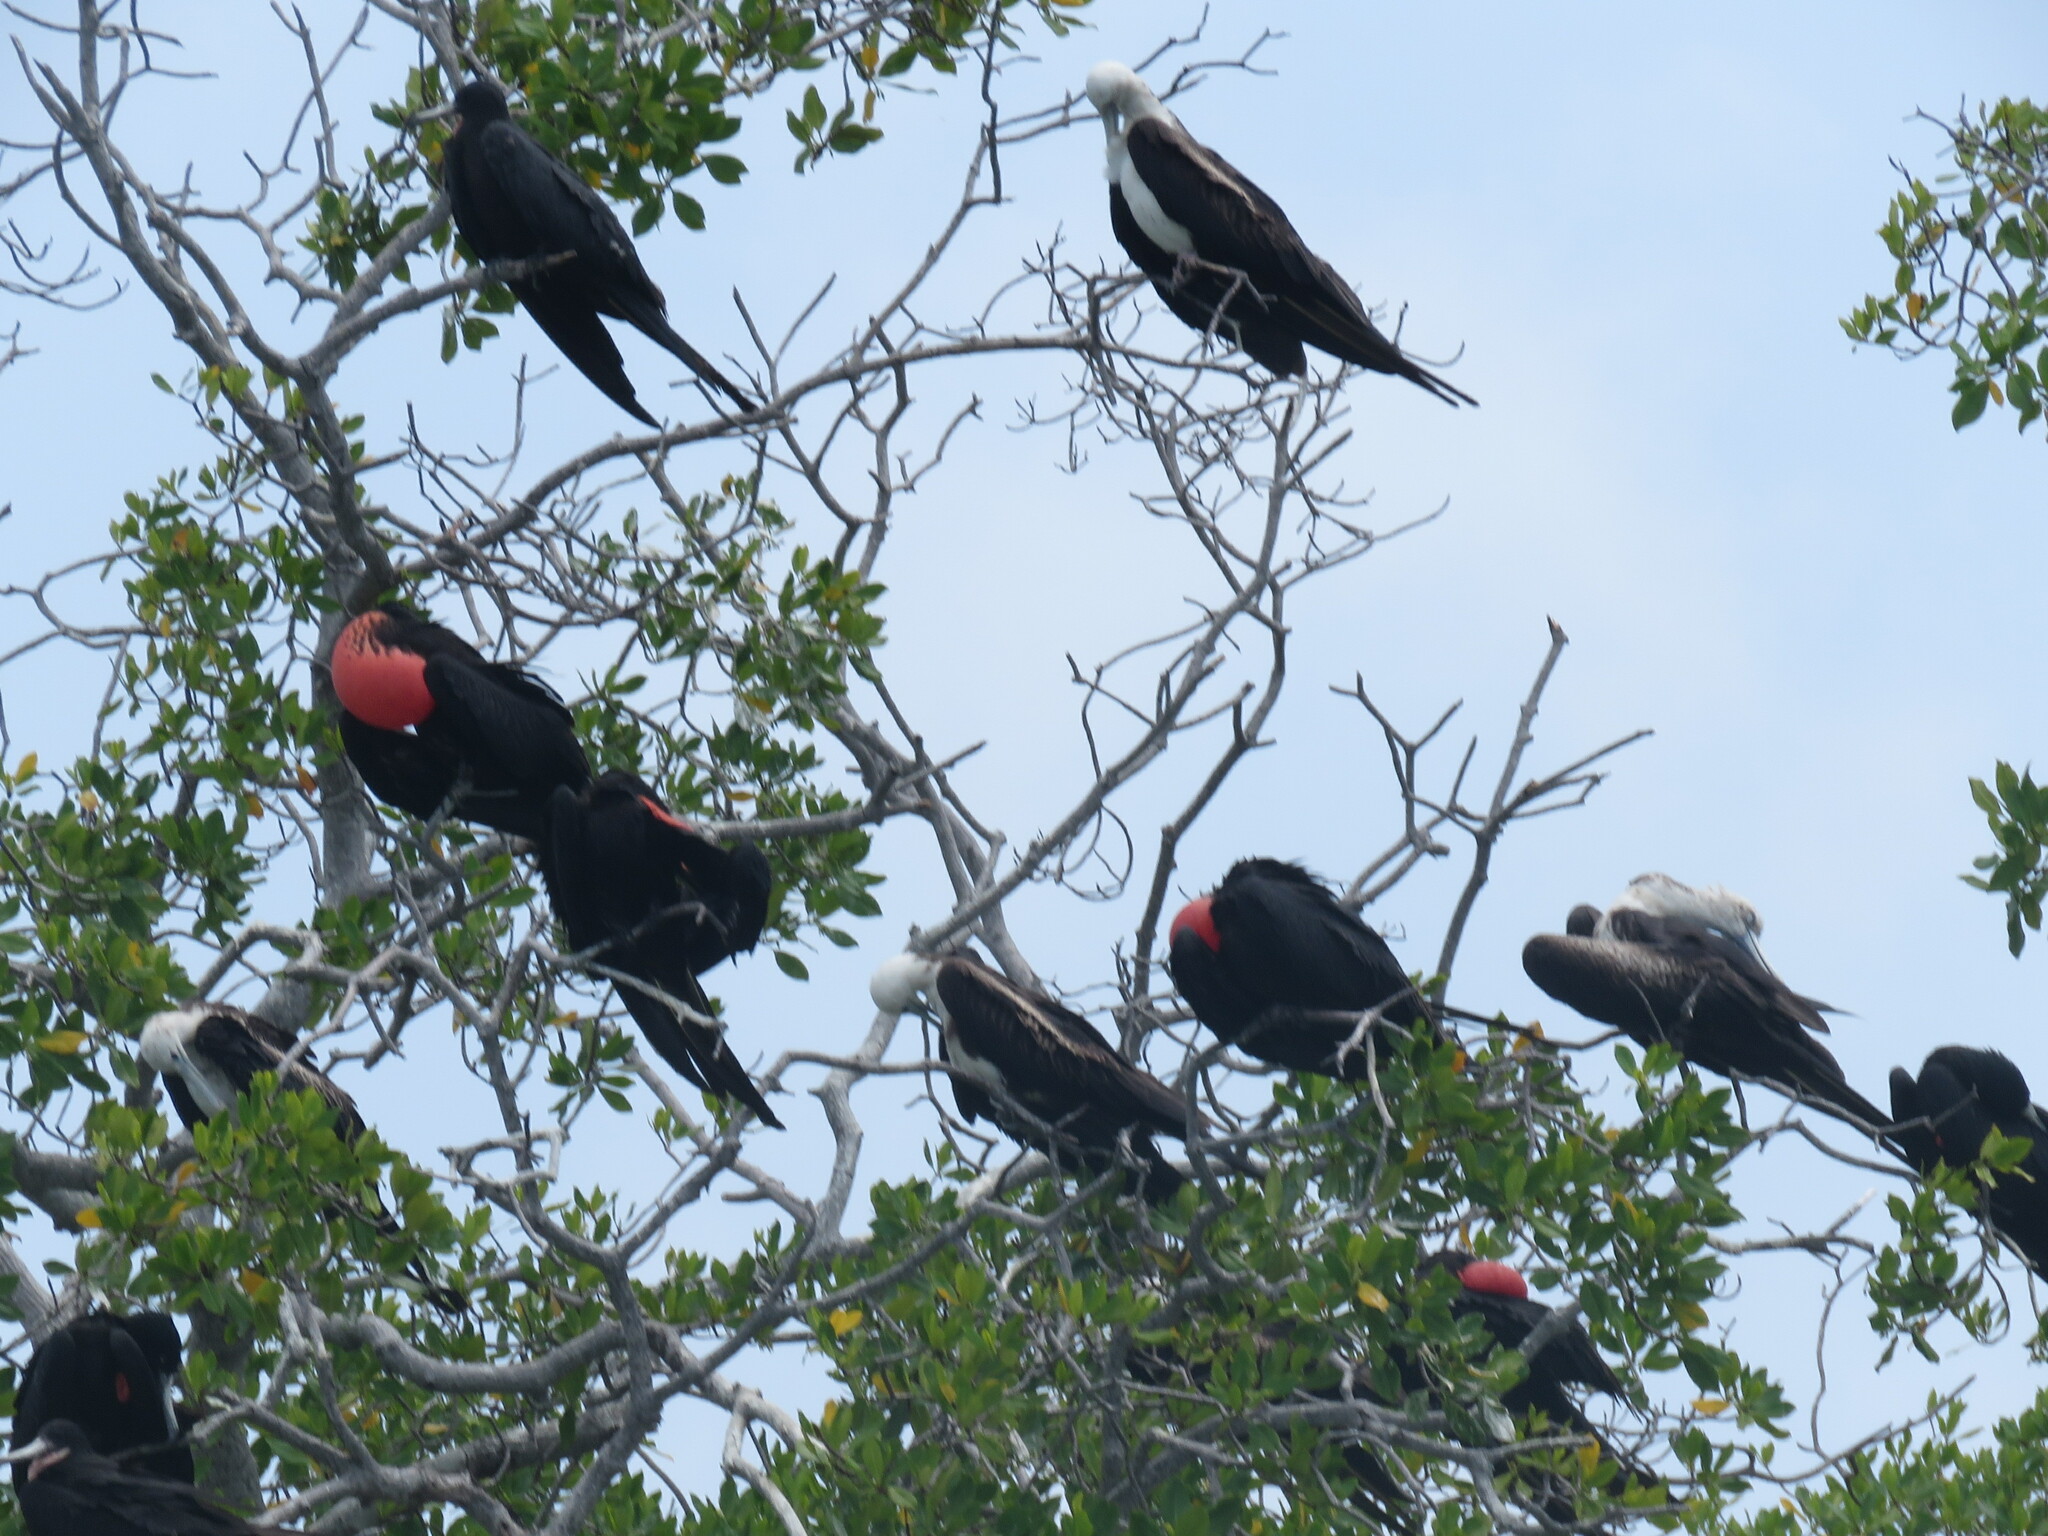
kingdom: Animalia
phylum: Chordata
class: Aves
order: Suliformes
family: Fregatidae
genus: Fregata
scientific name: Fregata magnificens
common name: Magnificent frigatebird
